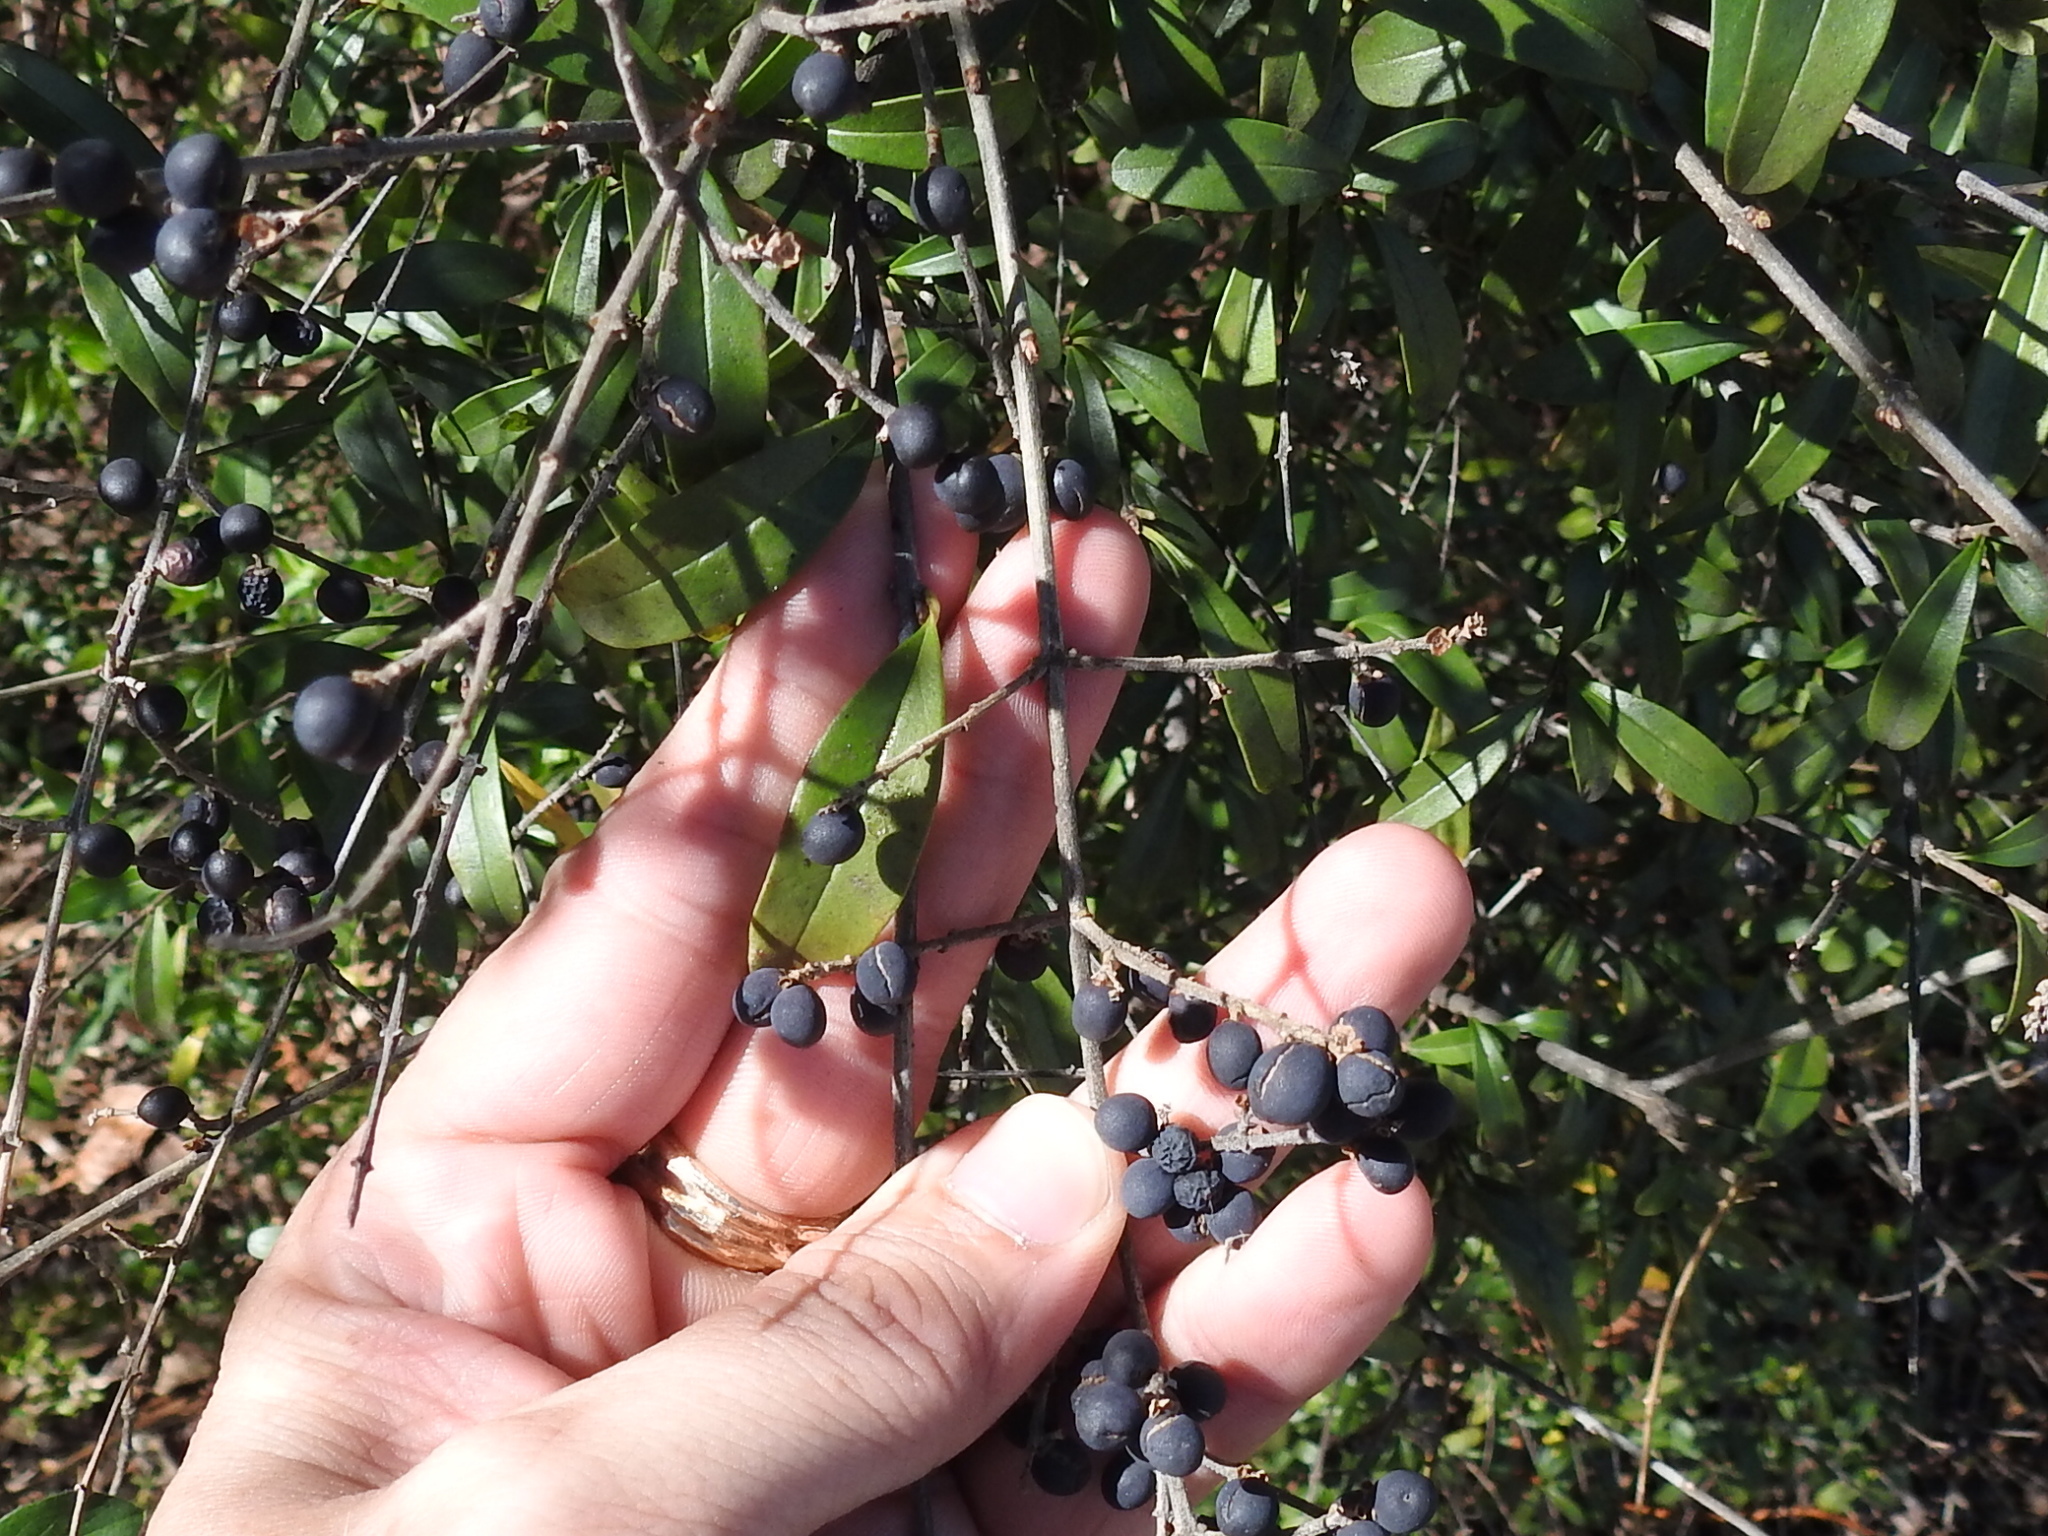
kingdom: Plantae
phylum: Tracheophyta
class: Magnoliopsida
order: Lamiales
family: Oleaceae
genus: Ligustrum
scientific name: Ligustrum quihoui
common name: Waxyleaf privet
